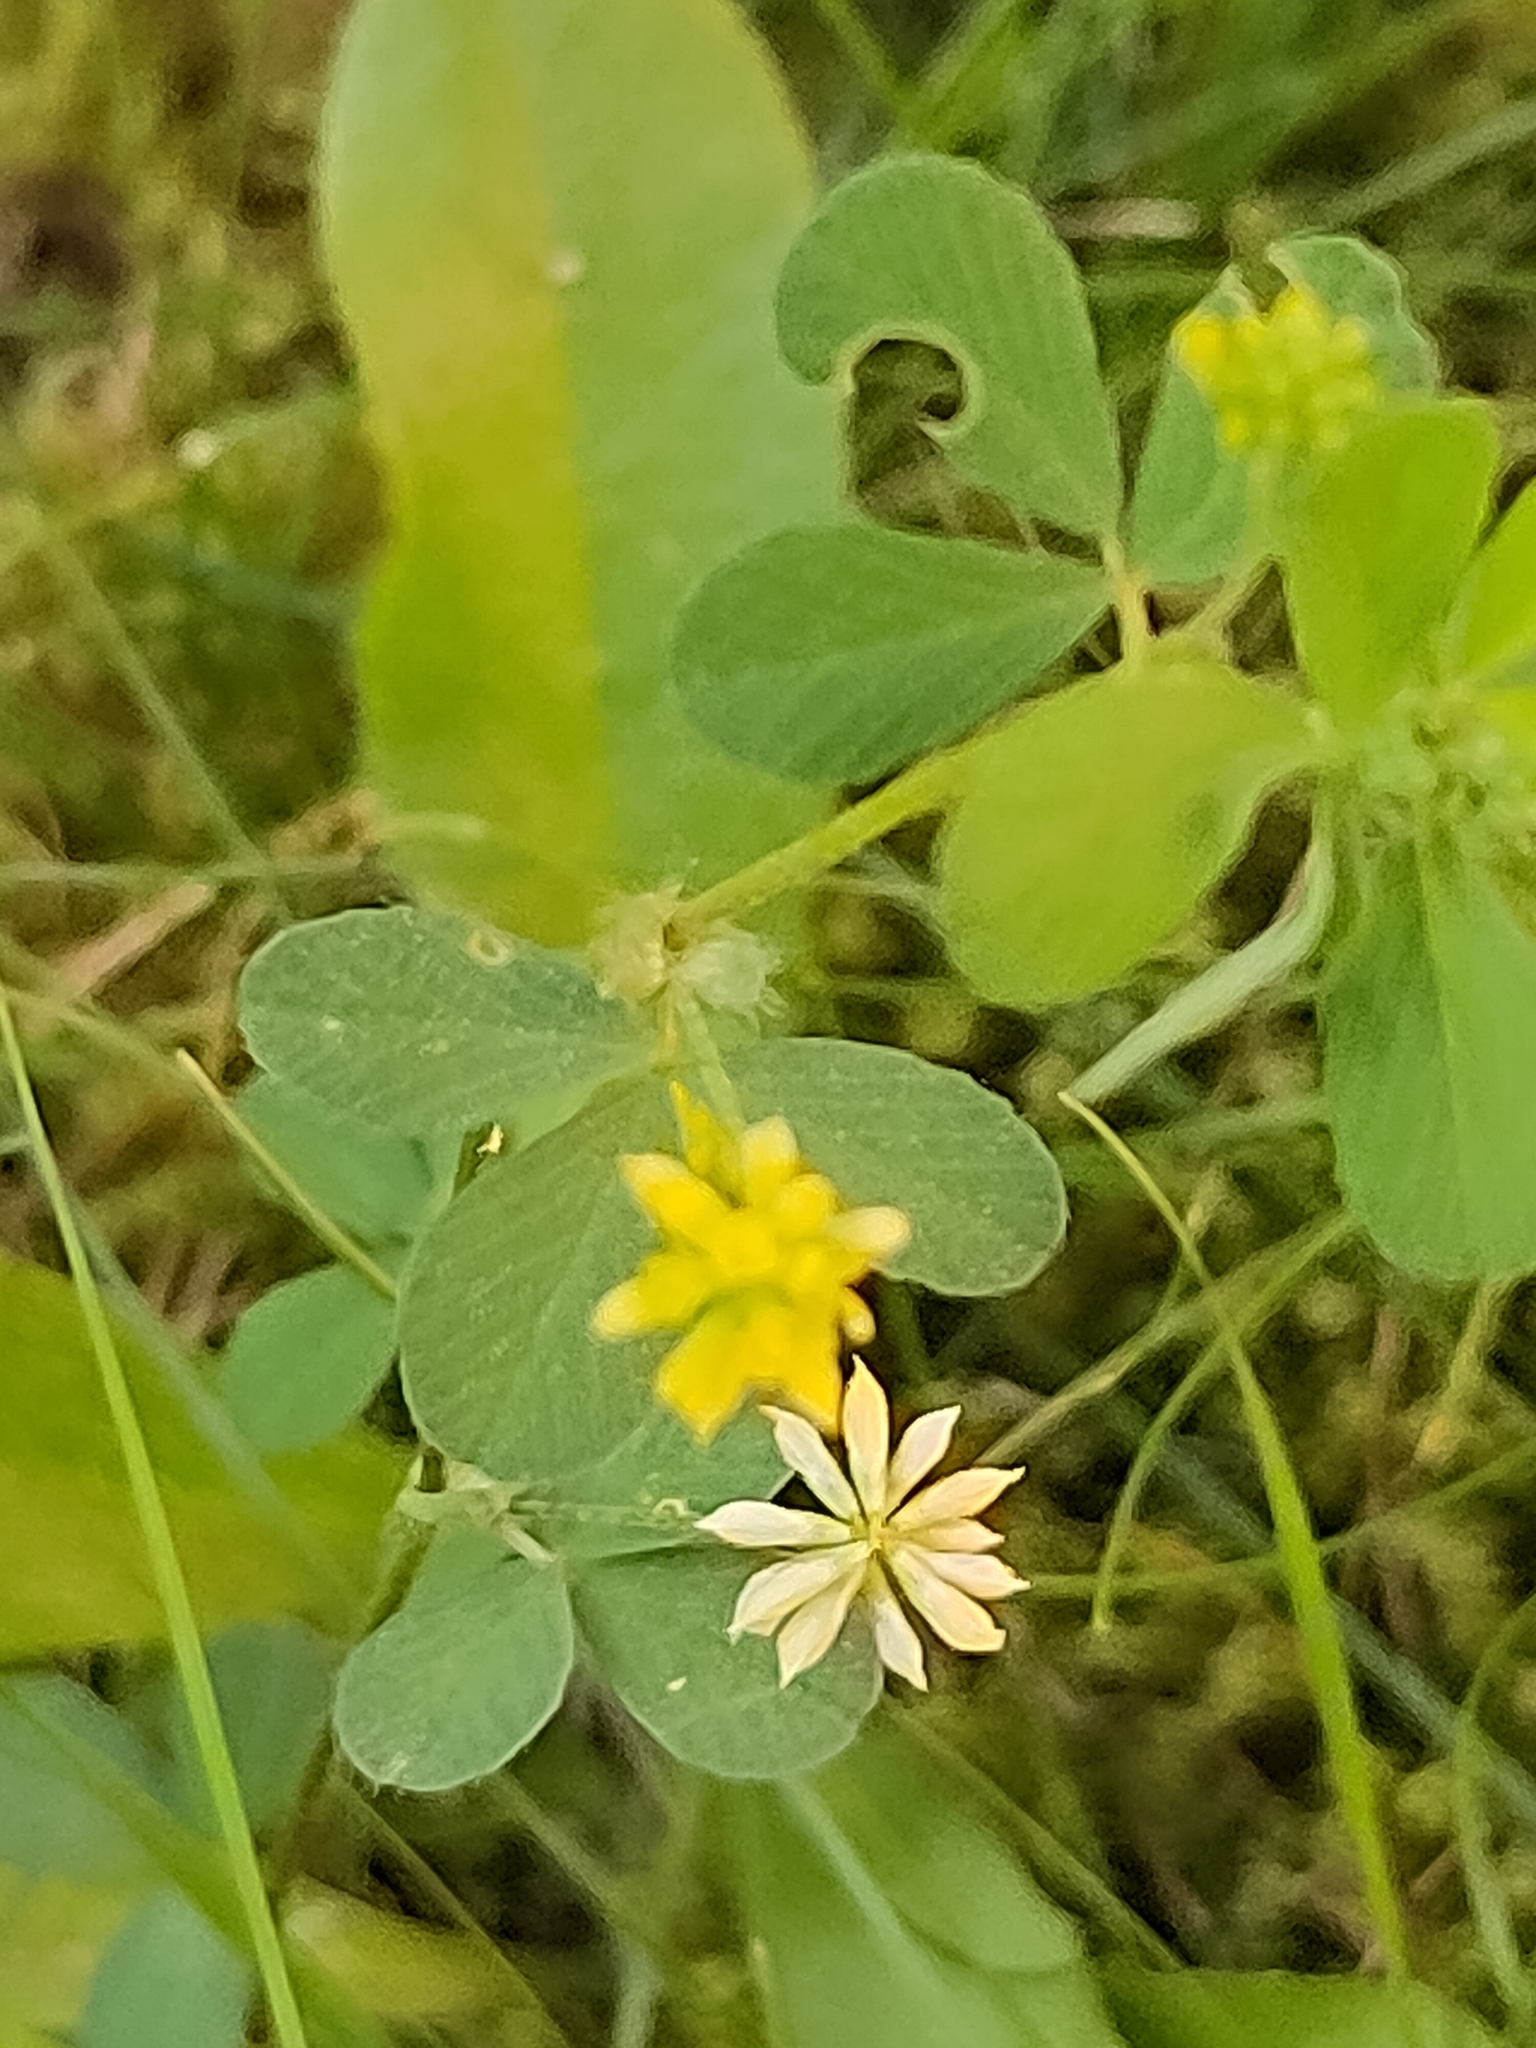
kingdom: Plantae
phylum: Tracheophyta
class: Magnoliopsida
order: Fabales
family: Fabaceae
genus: Trifolium
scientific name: Trifolium dubium
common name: Suckling clover
